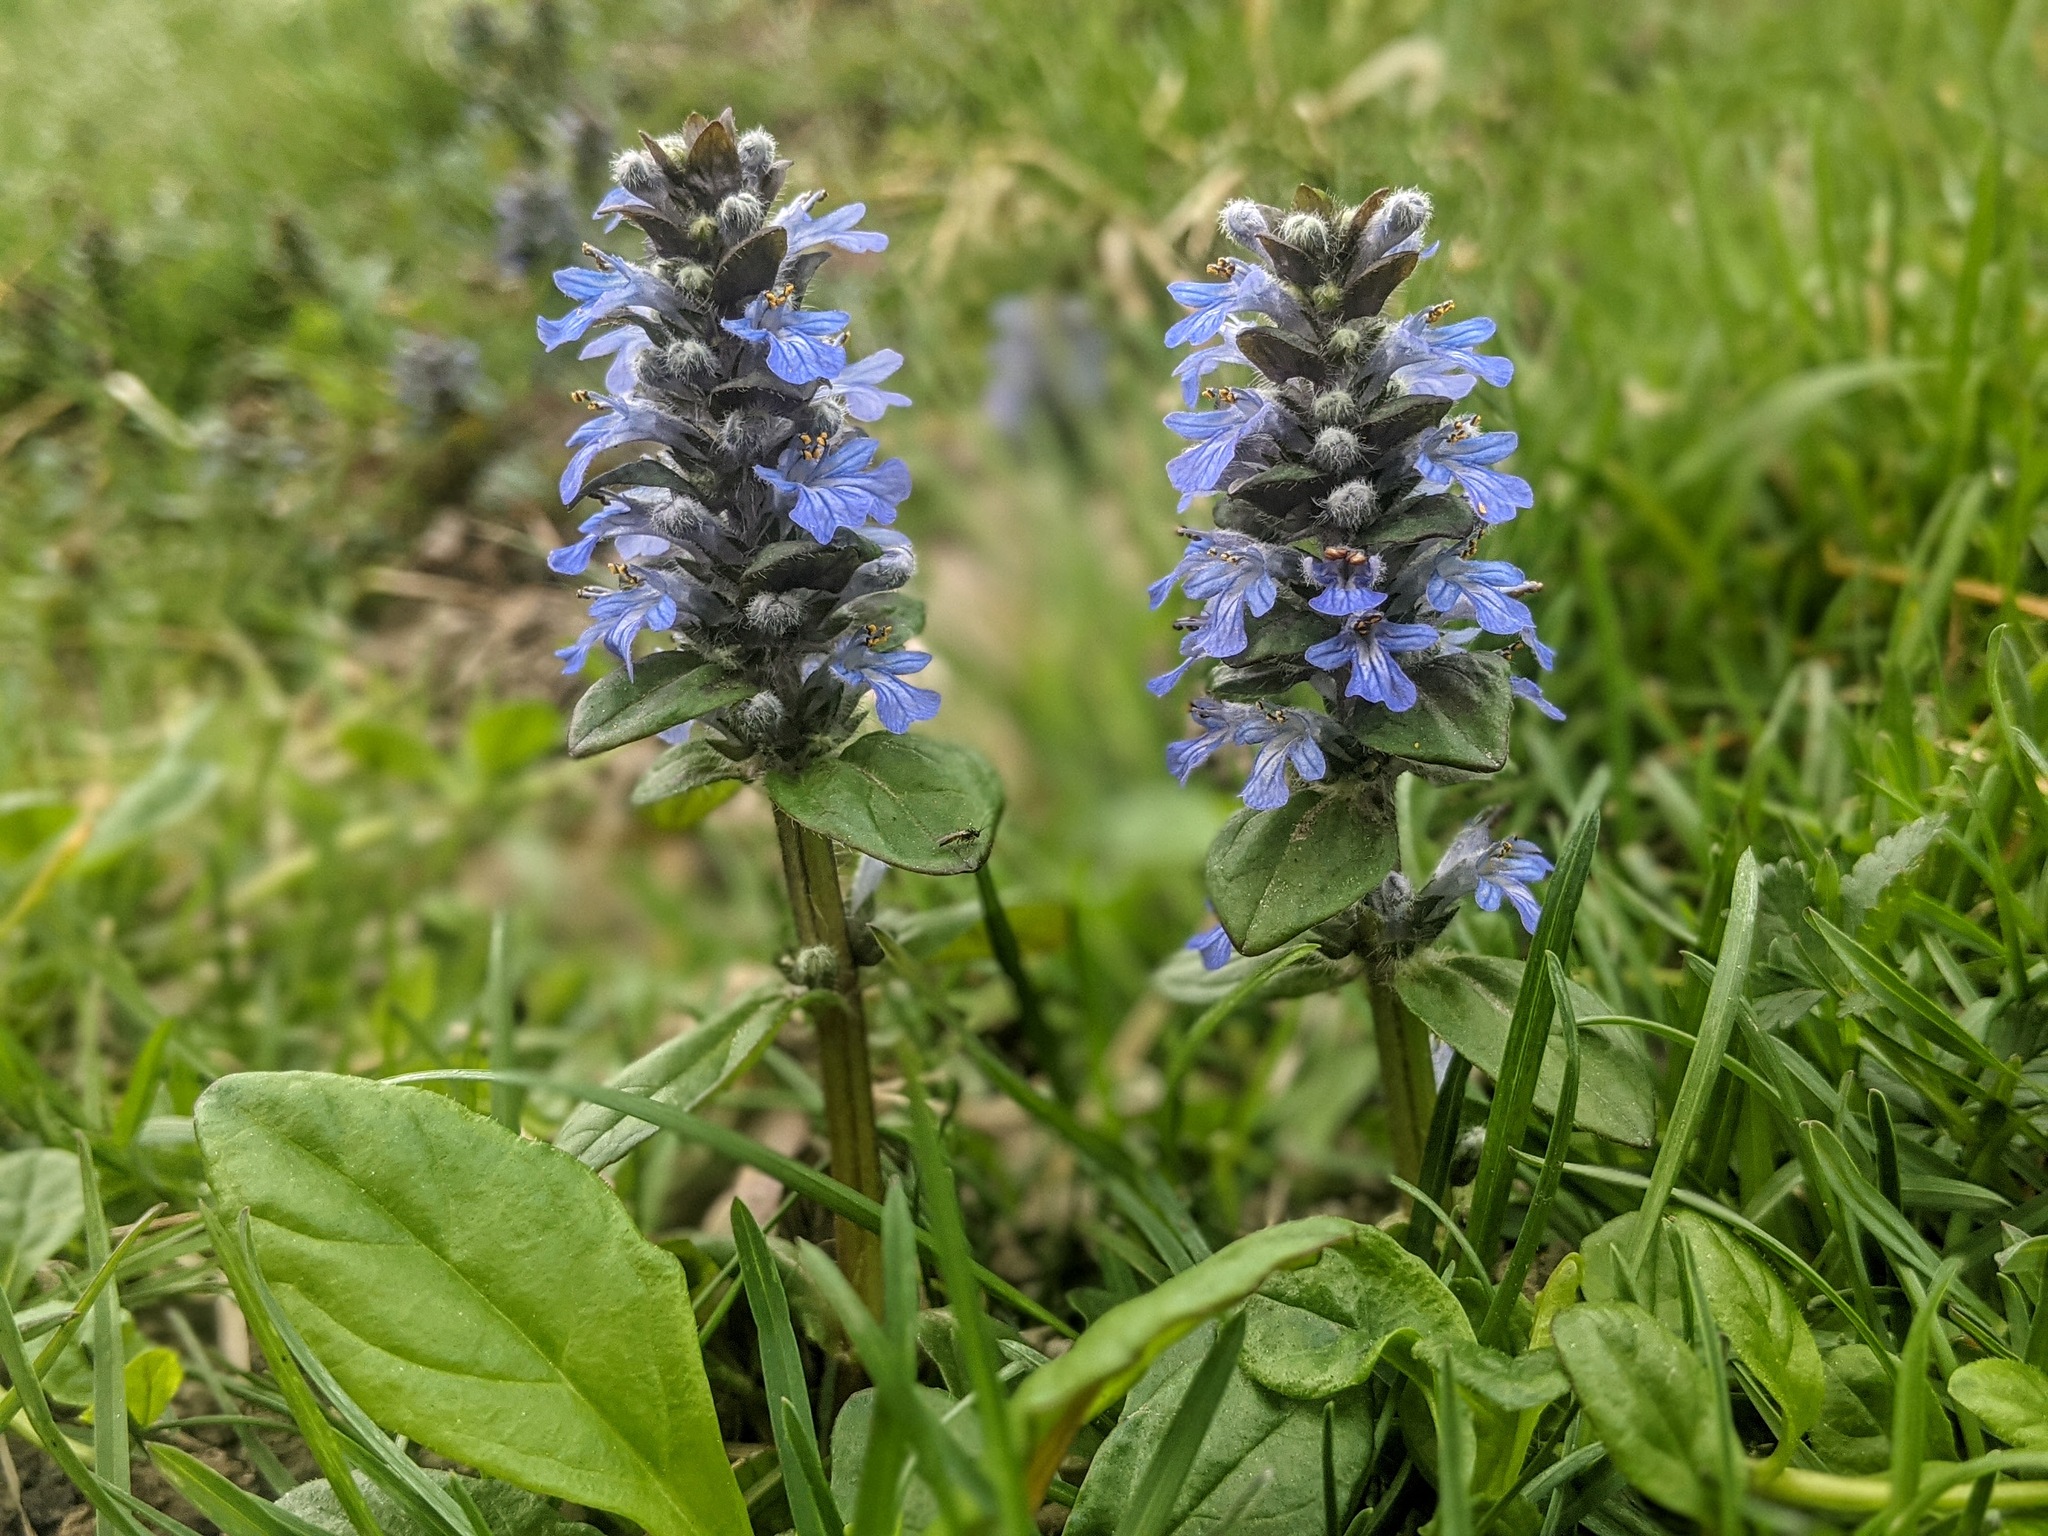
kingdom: Plantae
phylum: Tracheophyta
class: Magnoliopsida
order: Lamiales
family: Lamiaceae
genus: Ajuga
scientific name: Ajuga reptans
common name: Bugle
